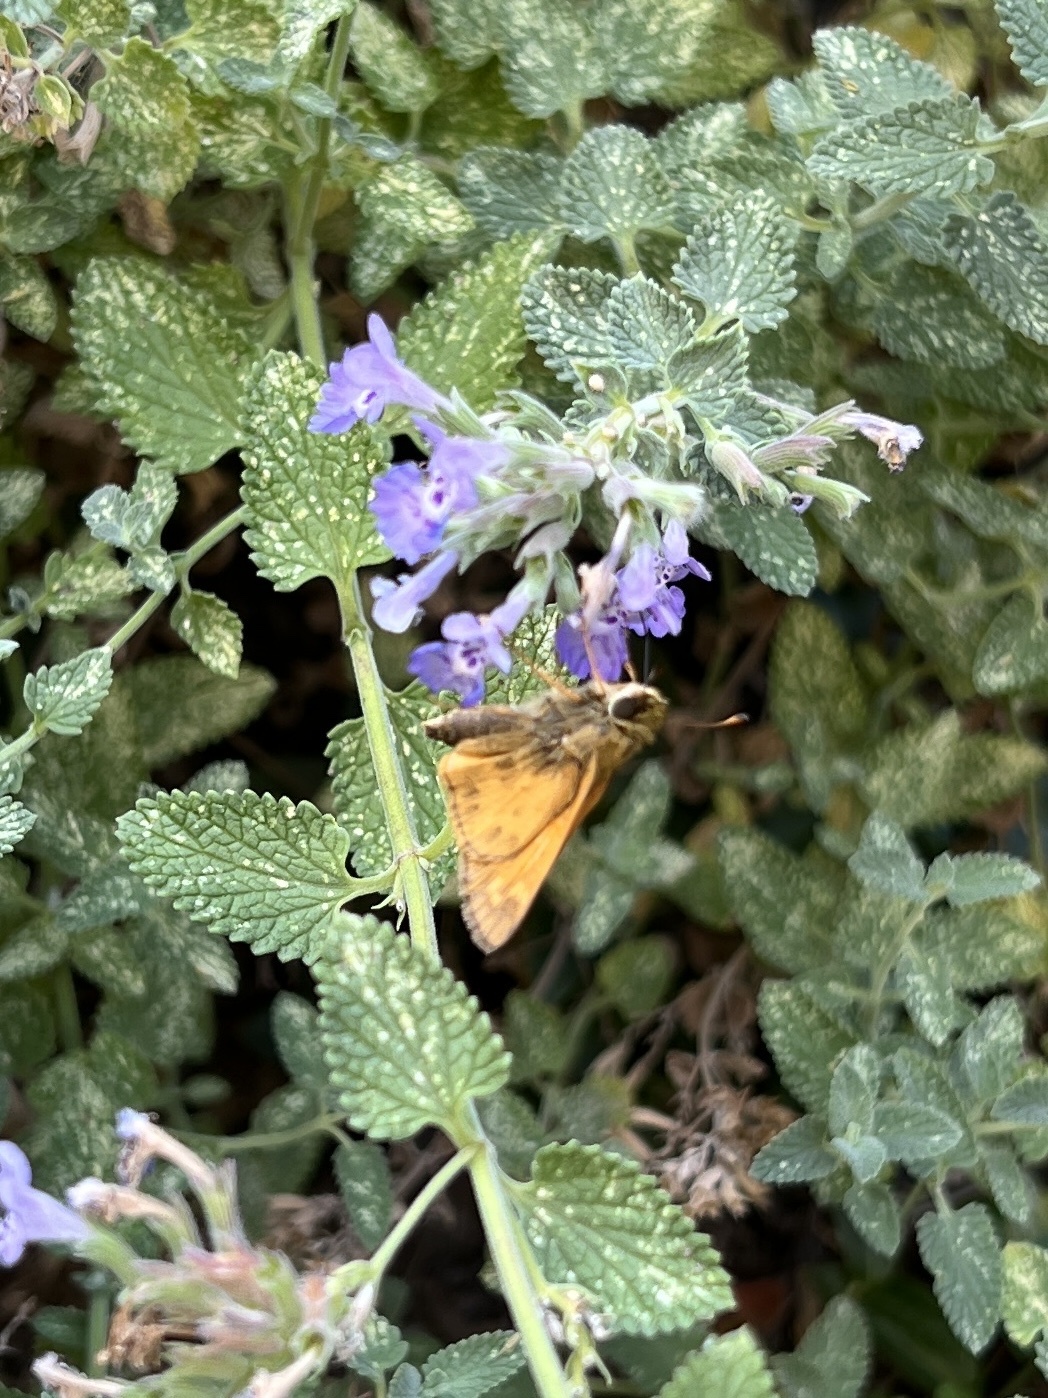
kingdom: Animalia
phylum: Arthropoda
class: Insecta
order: Lepidoptera
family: Hesperiidae
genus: Atalopedes
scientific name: Atalopedes
